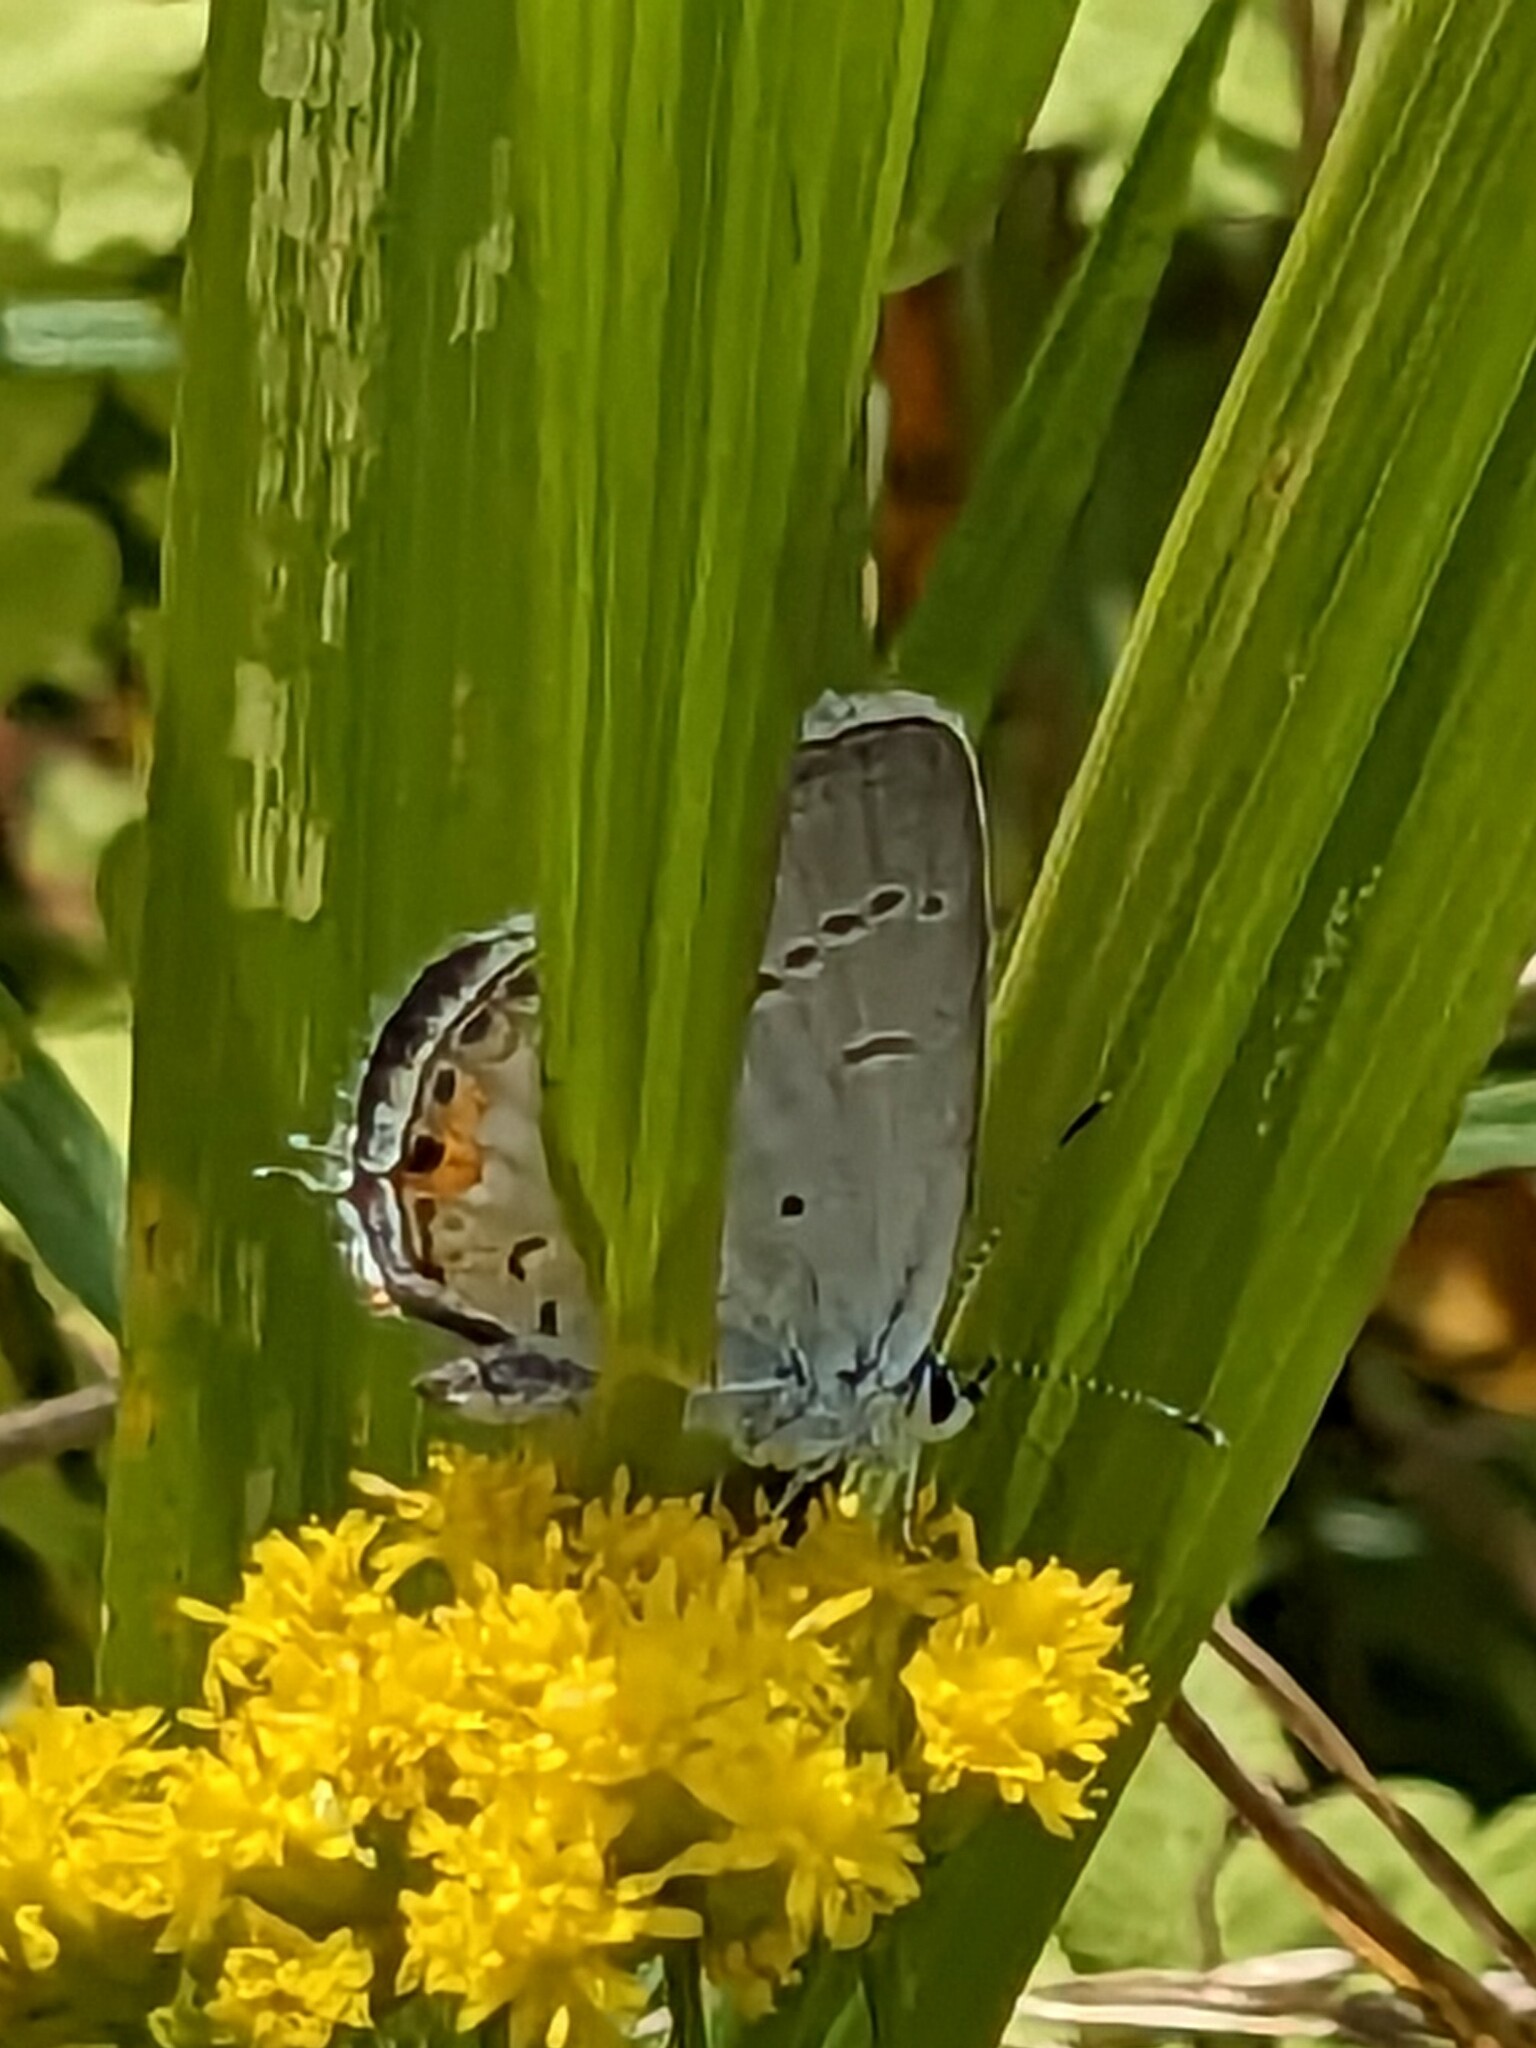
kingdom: Animalia
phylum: Arthropoda
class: Insecta
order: Lepidoptera
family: Lycaenidae
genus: Elkalyce
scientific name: Elkalyce comyntas
